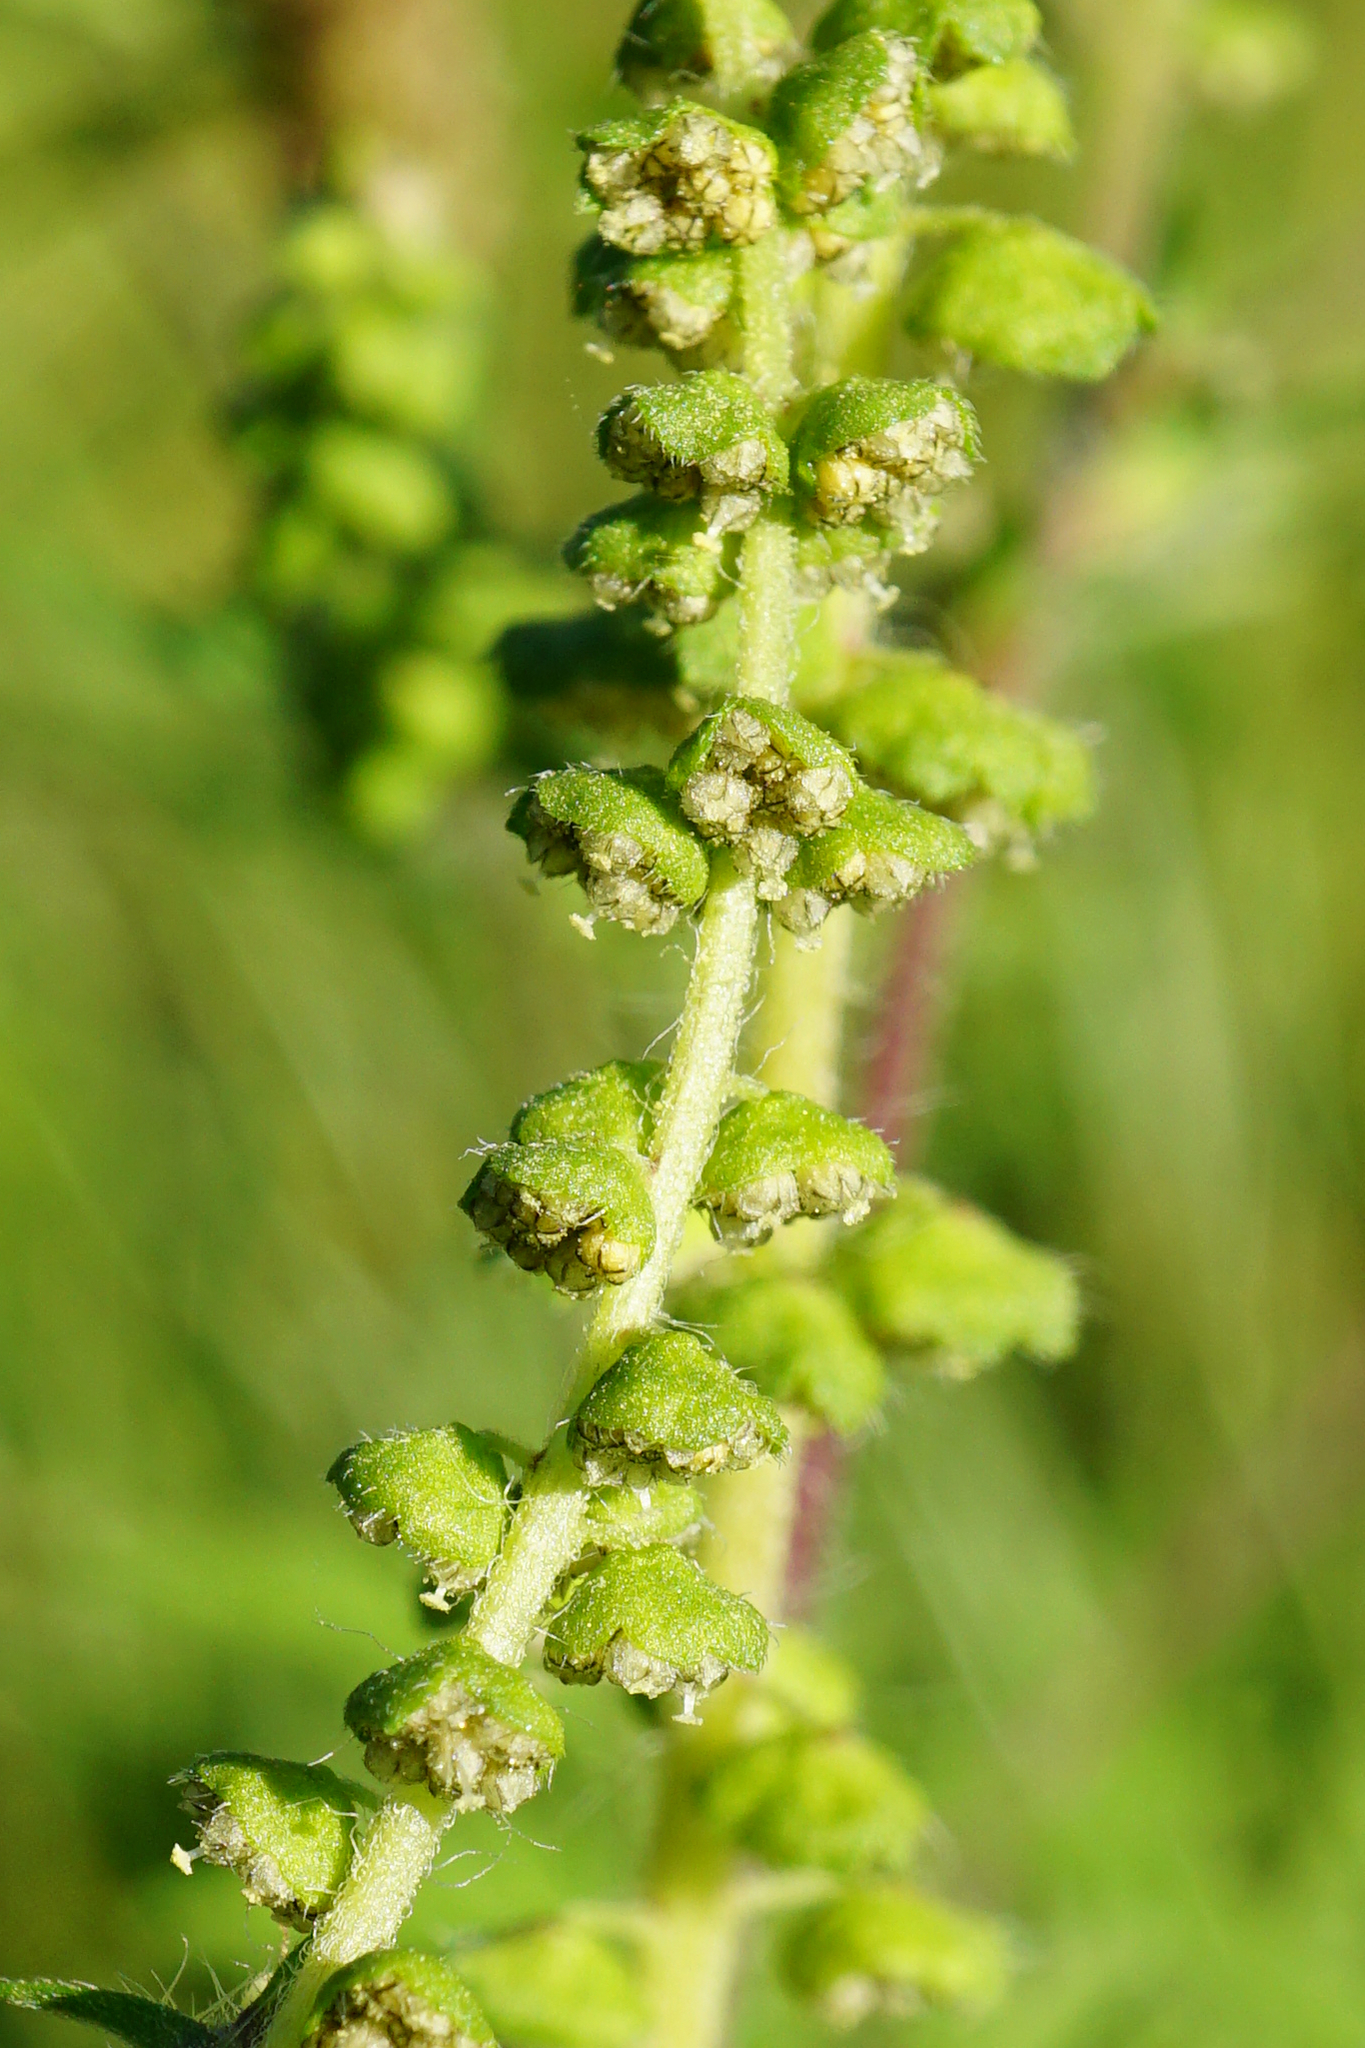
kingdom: Plantae
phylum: Tracheophyta
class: Magnoliopsida
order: Asterales
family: Asteraceae
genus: Ambrosia
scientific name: Ambrosia artemisiifolia
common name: Annual ragweed
